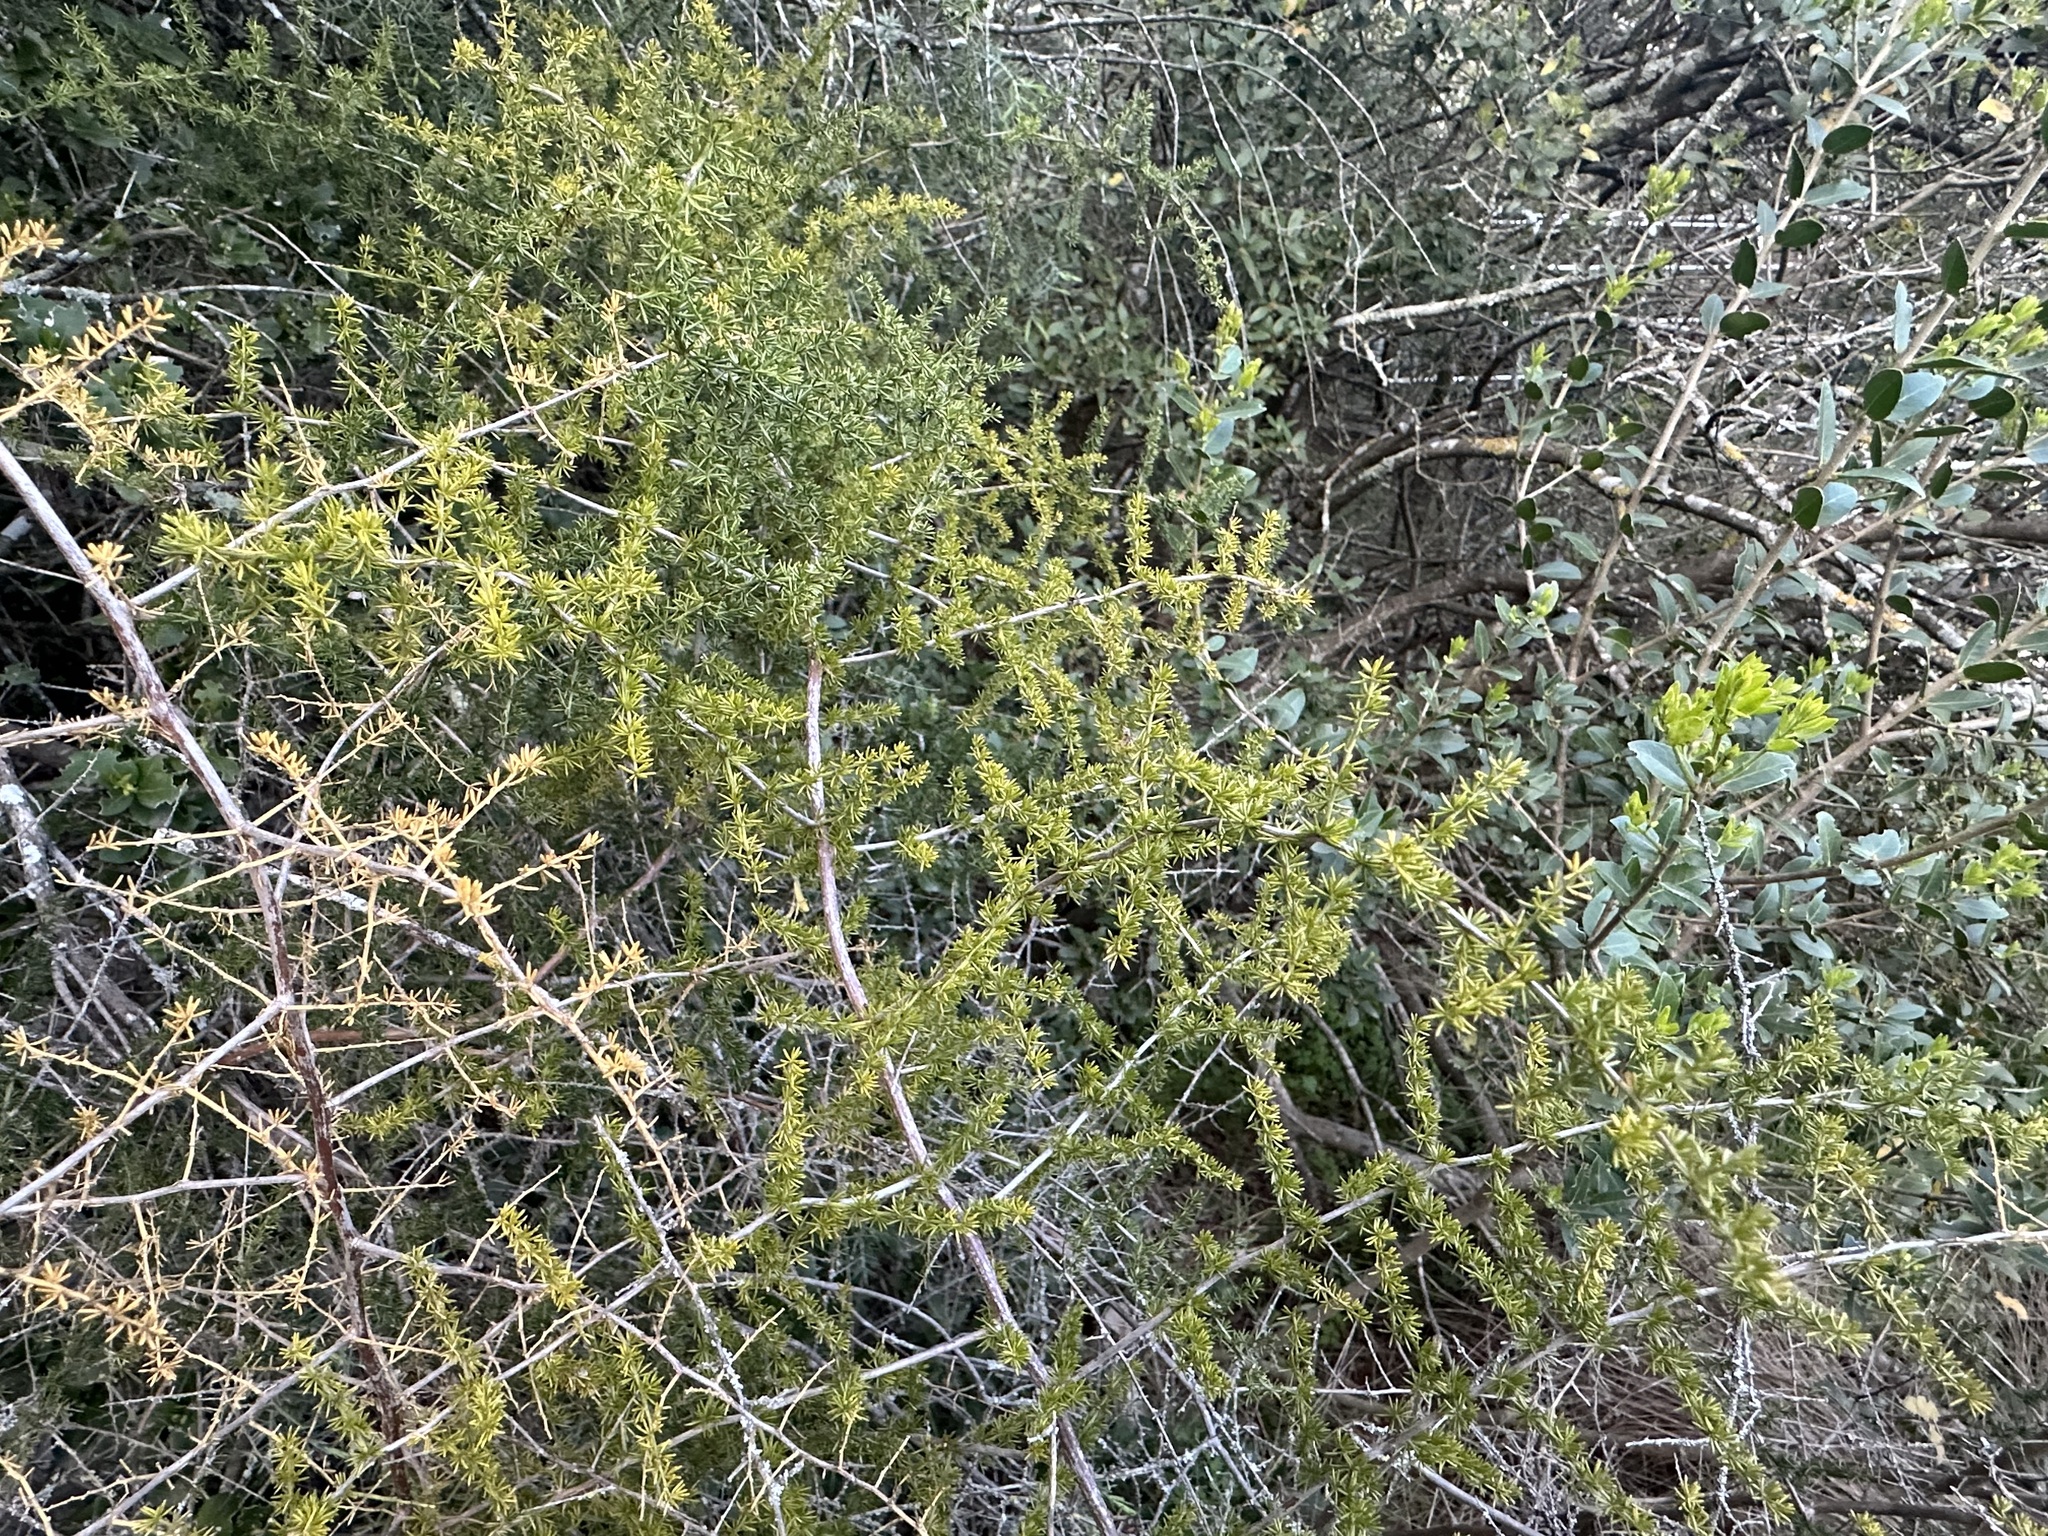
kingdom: Plantae
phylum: Tracheophyta
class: Liliopsida
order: Asparagales
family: Asparagaceae
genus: Asparagus
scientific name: Asparagus acutifolius
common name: Wild asparagus
